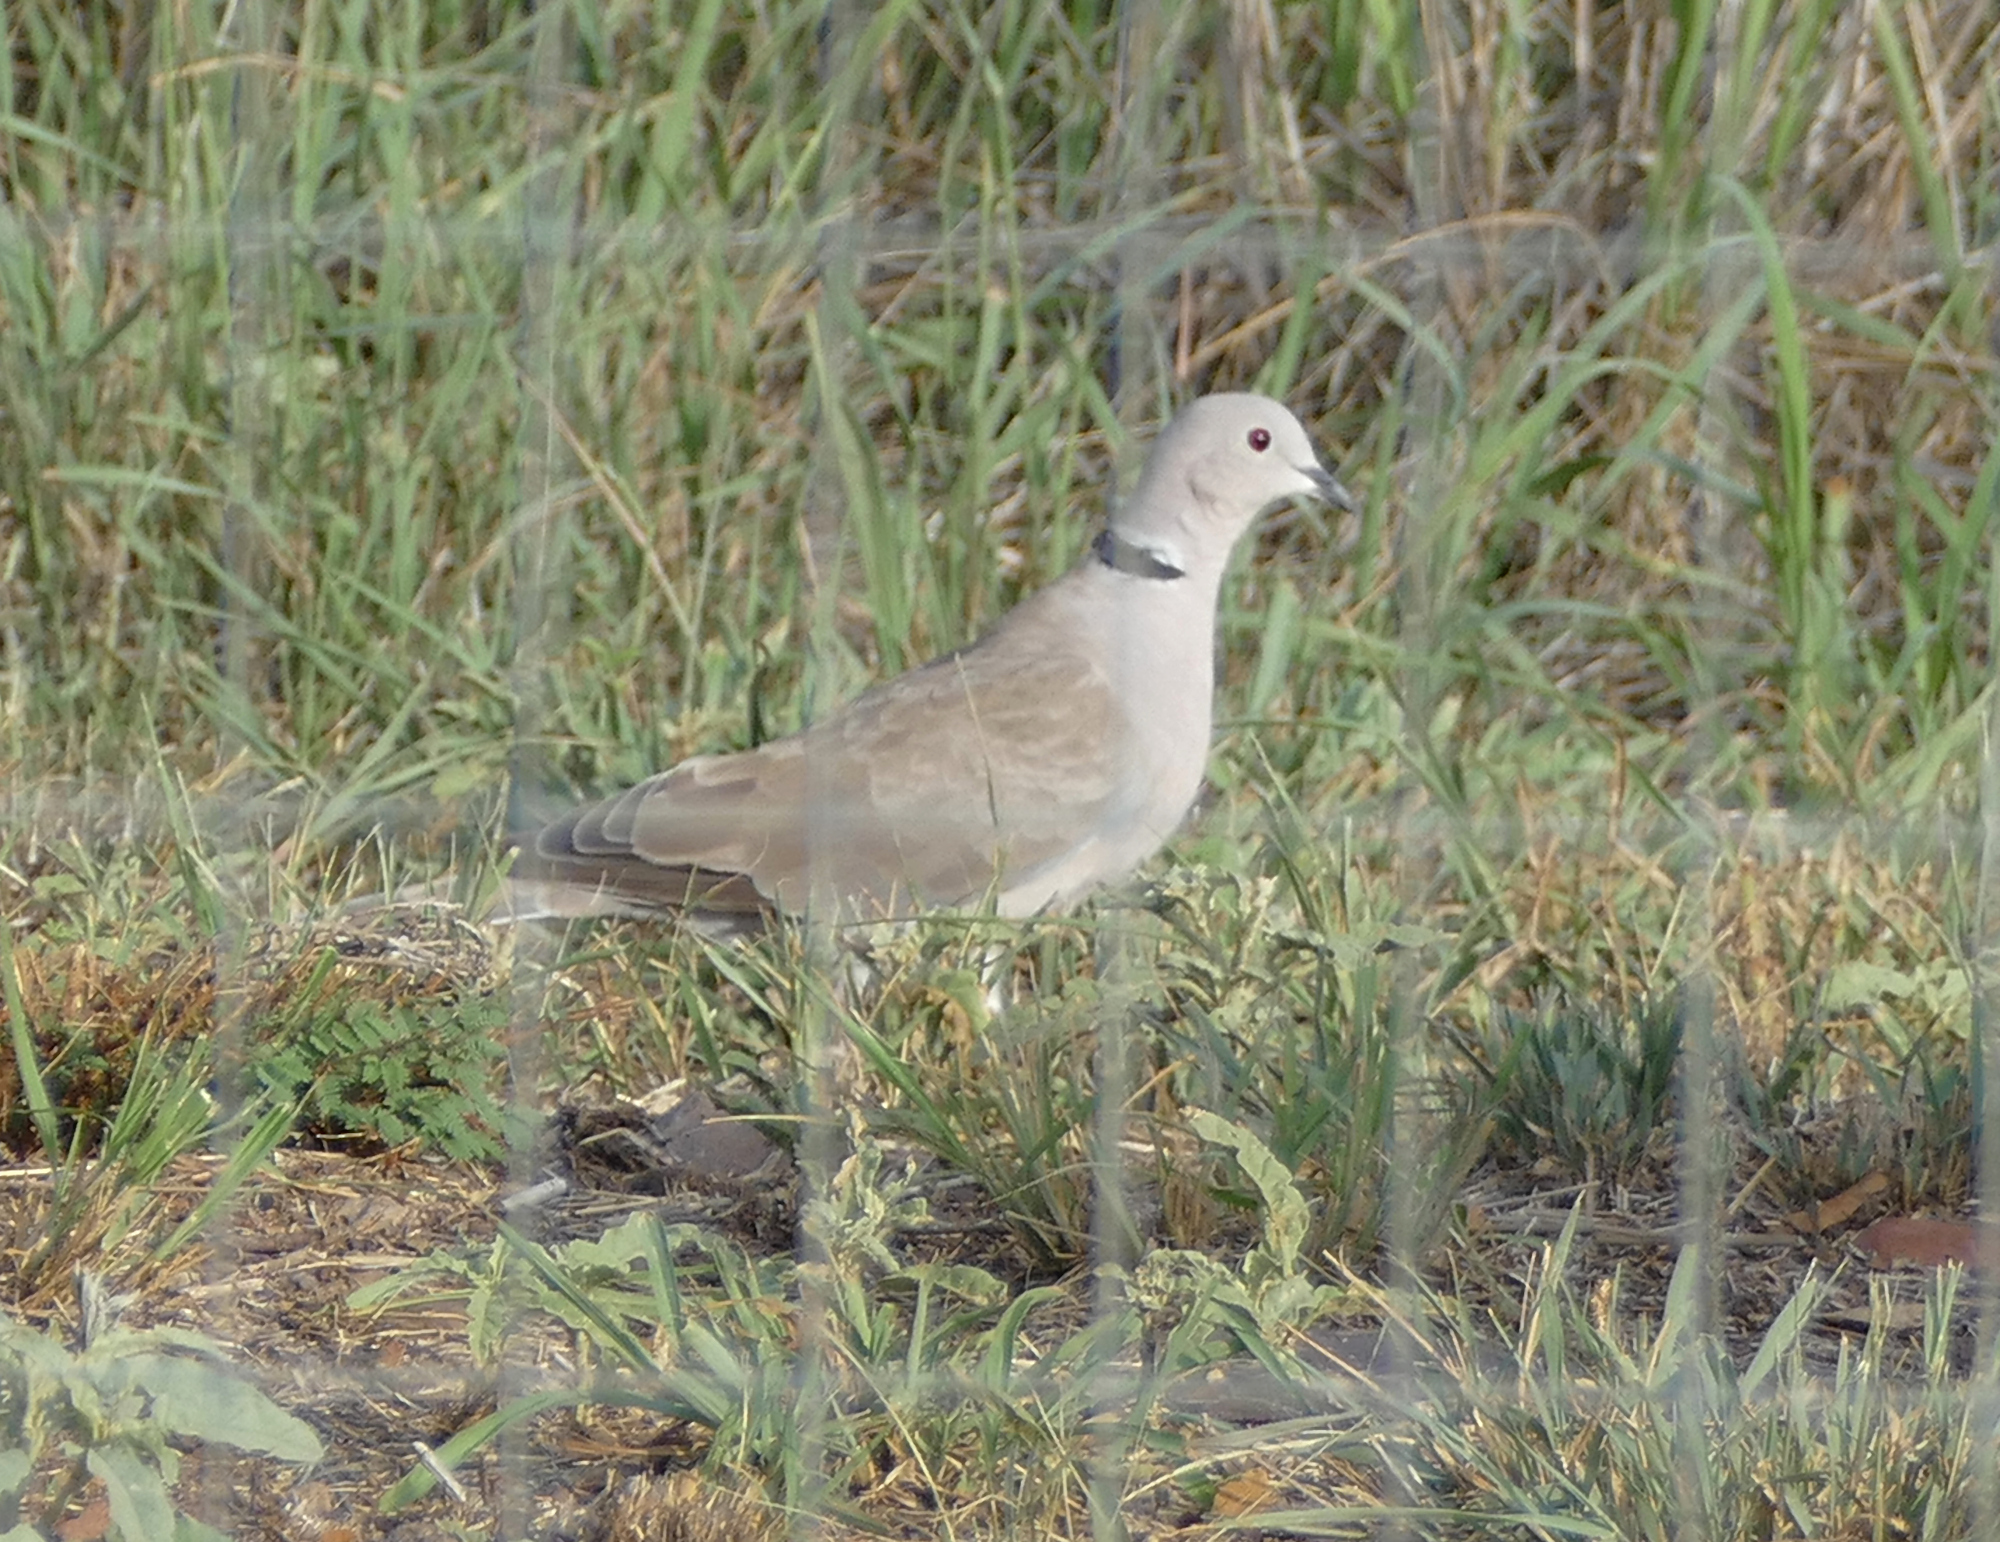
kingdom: Animalia
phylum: Chordata
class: Aves
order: Columbiformes
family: Columbidae
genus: Streptopelia
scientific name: Streptopelia decaocto
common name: Eurasian collared dove
